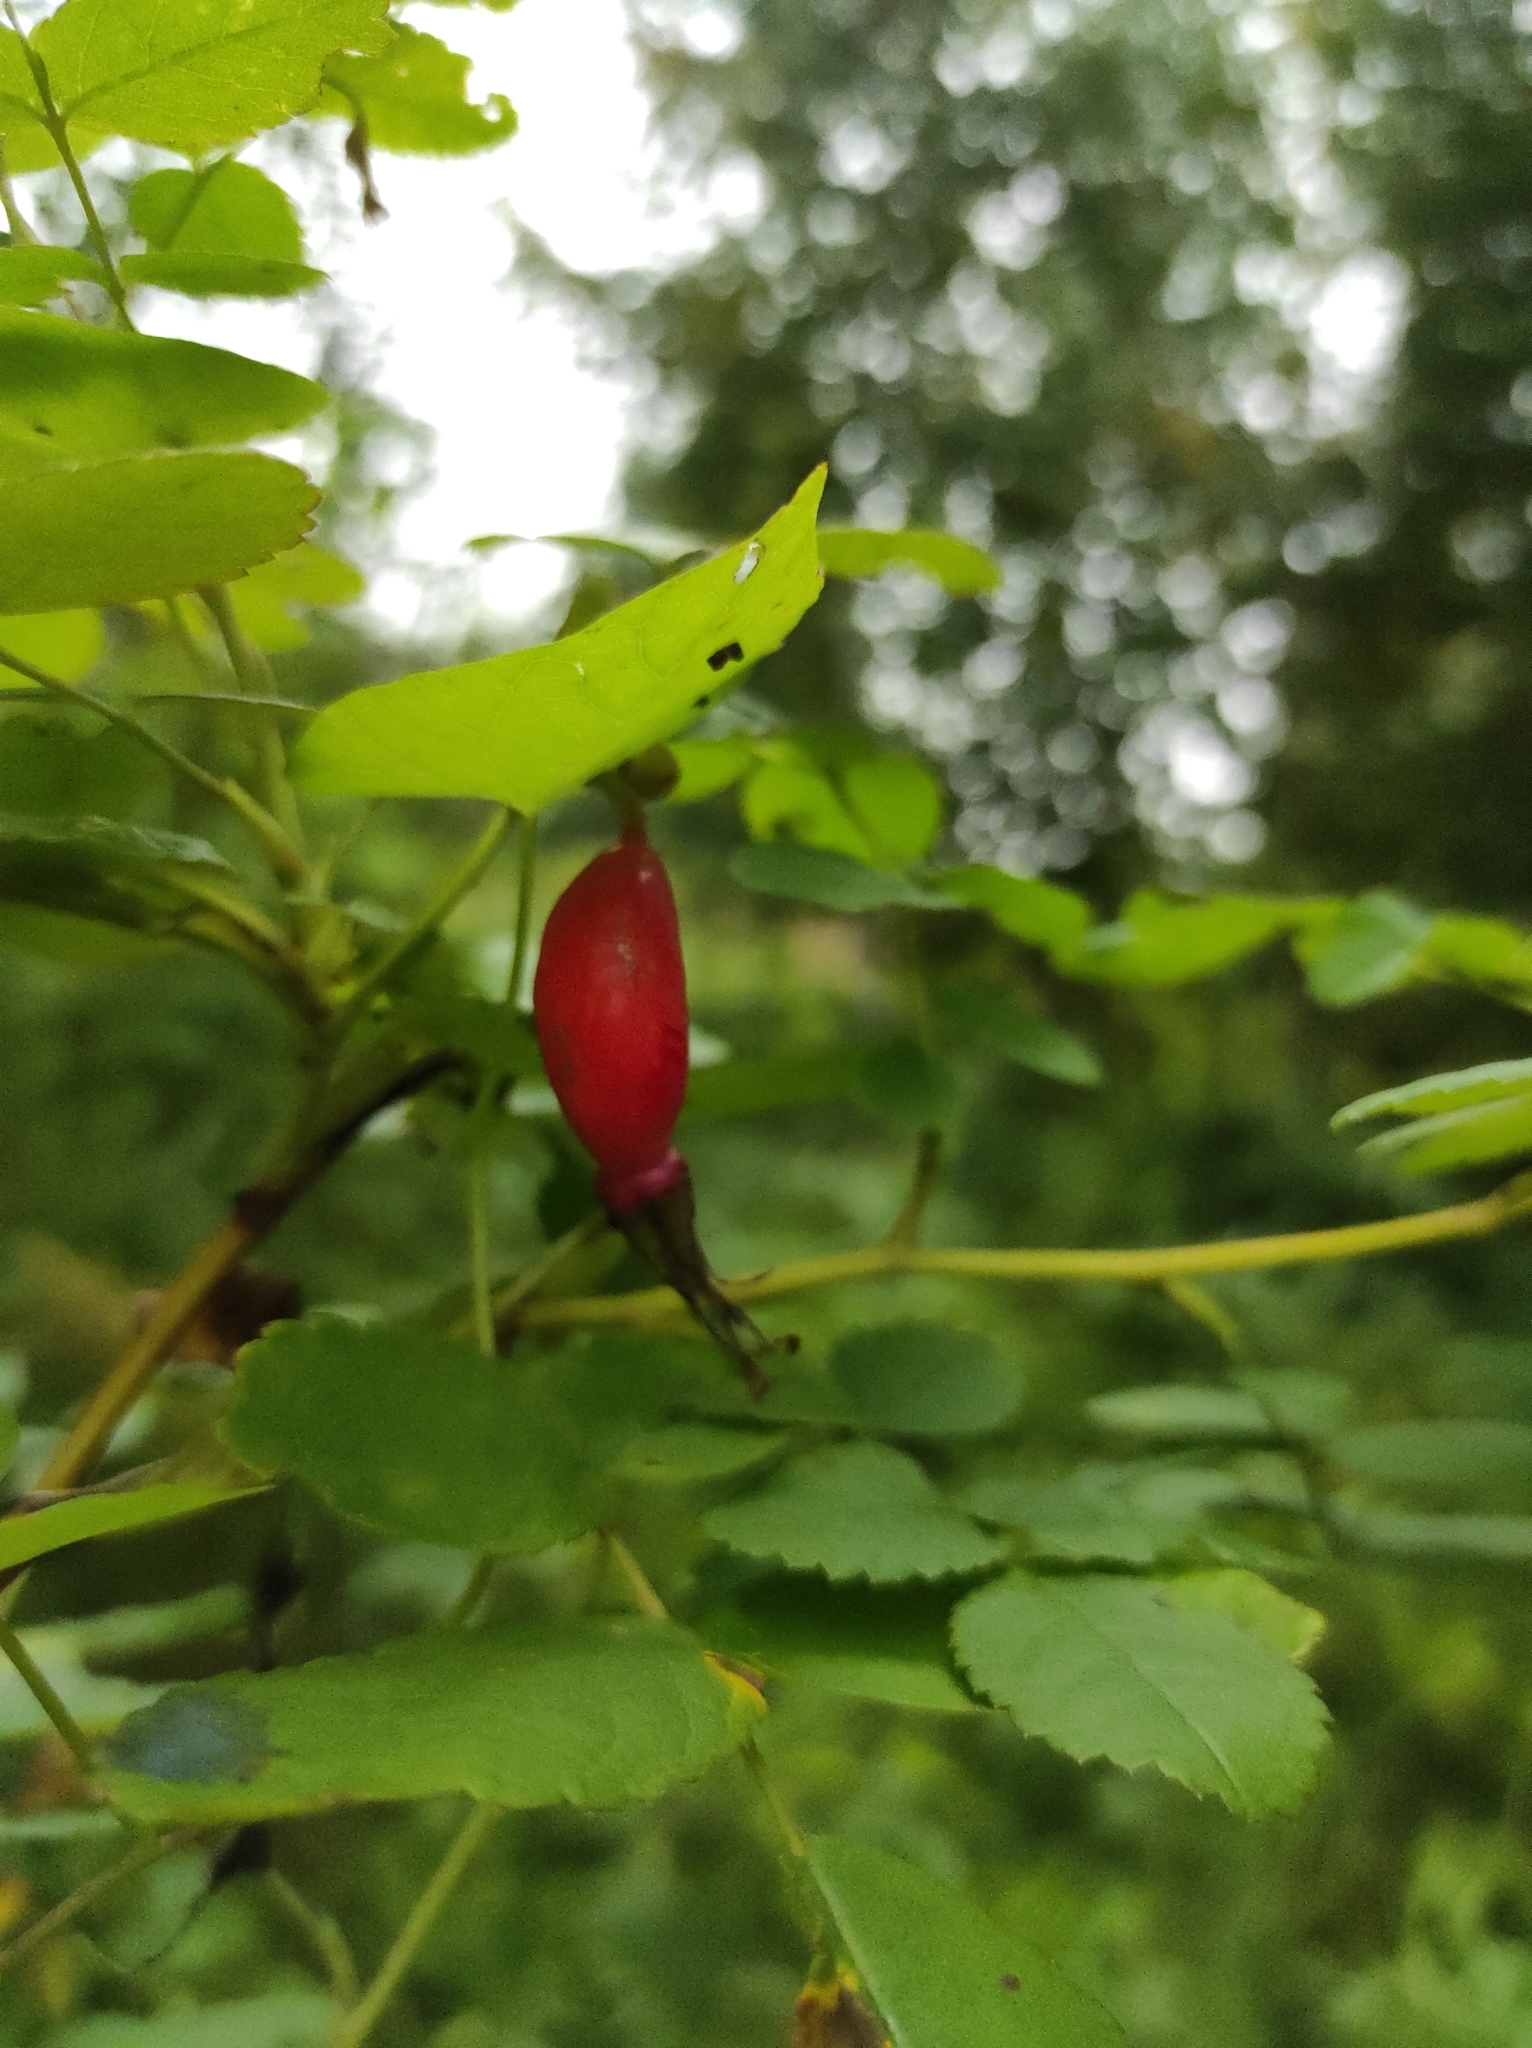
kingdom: Plantae
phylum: Tracheophyta
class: Magnoliopsida
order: Rosales
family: Rosaceae
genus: Rosa
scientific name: Rosa majalis
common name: Cinnamon rose
